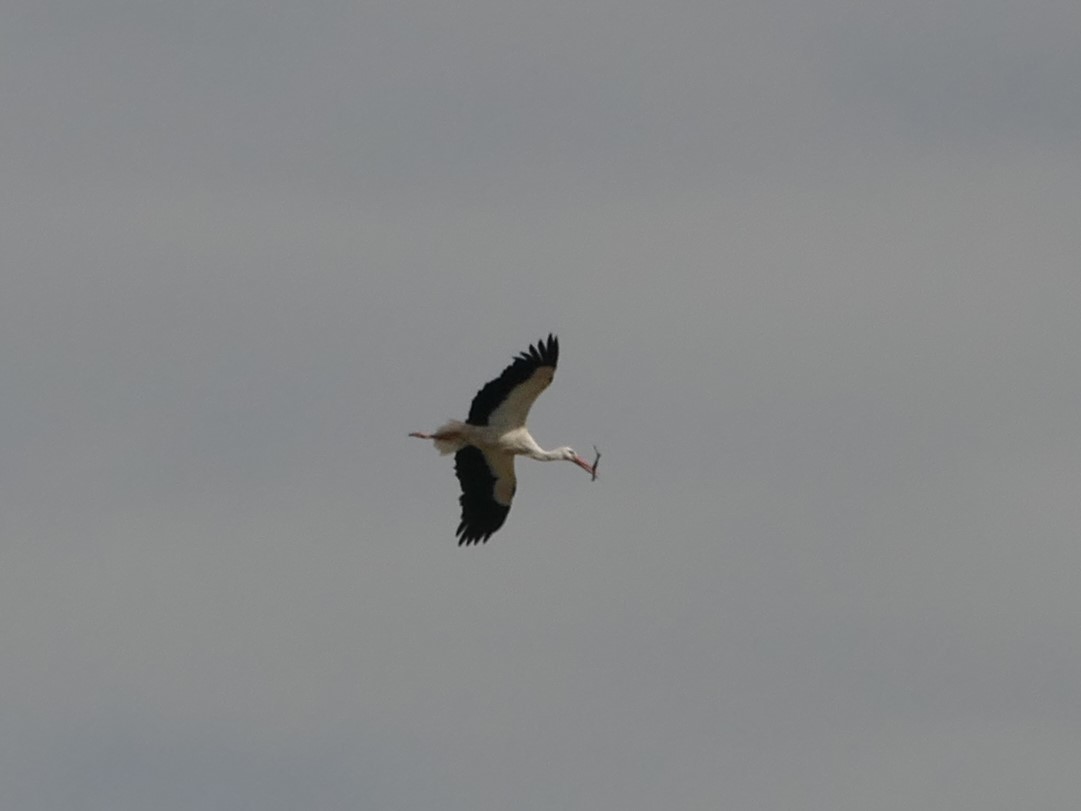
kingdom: Animalia
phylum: Chordata
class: Aves
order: Ciconiiformes
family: Ciconiidae
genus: Ciconia
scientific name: Ciconia ciconia
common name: White stork
